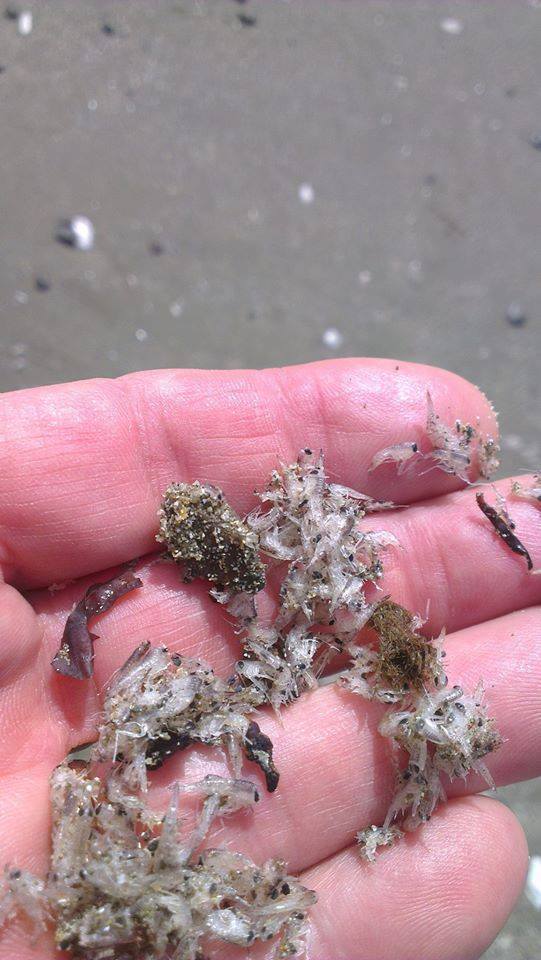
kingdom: Animalia
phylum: Arthropoda
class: Malacostraca
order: Amphipoda
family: Hyperiidae
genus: Themisto
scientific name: Themisto
